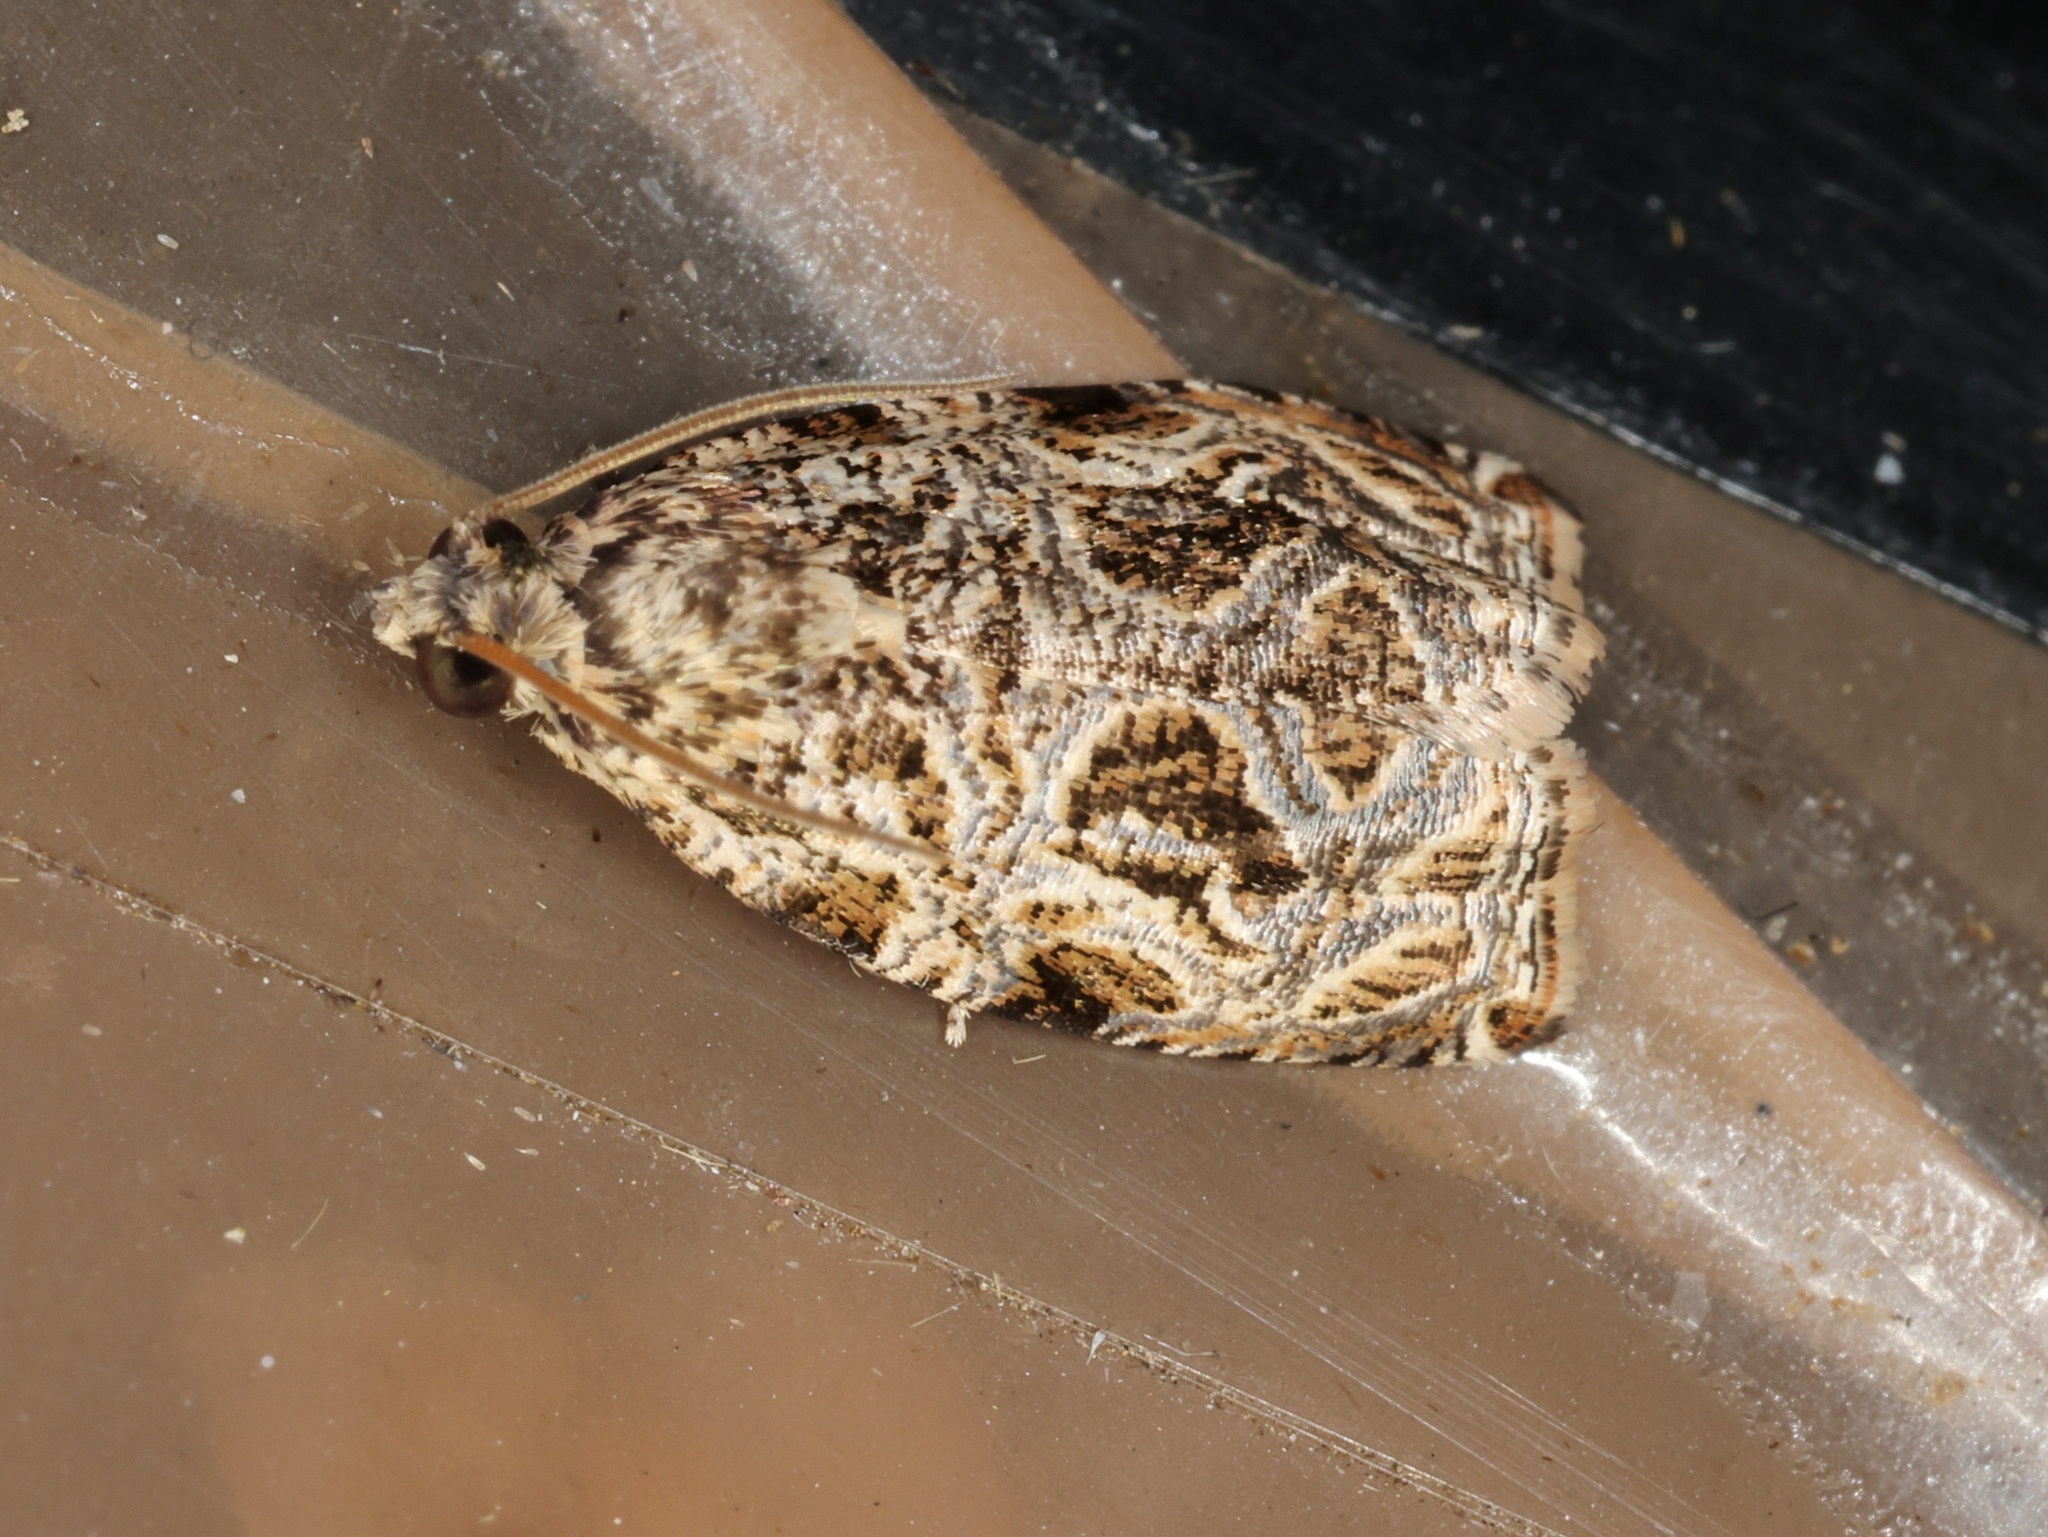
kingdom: Animalia
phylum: Arthropoda
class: Insecta
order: Lepidoptera
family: Tortricidae
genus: Phaecasiophora
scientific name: Phaecasiophora leechi
